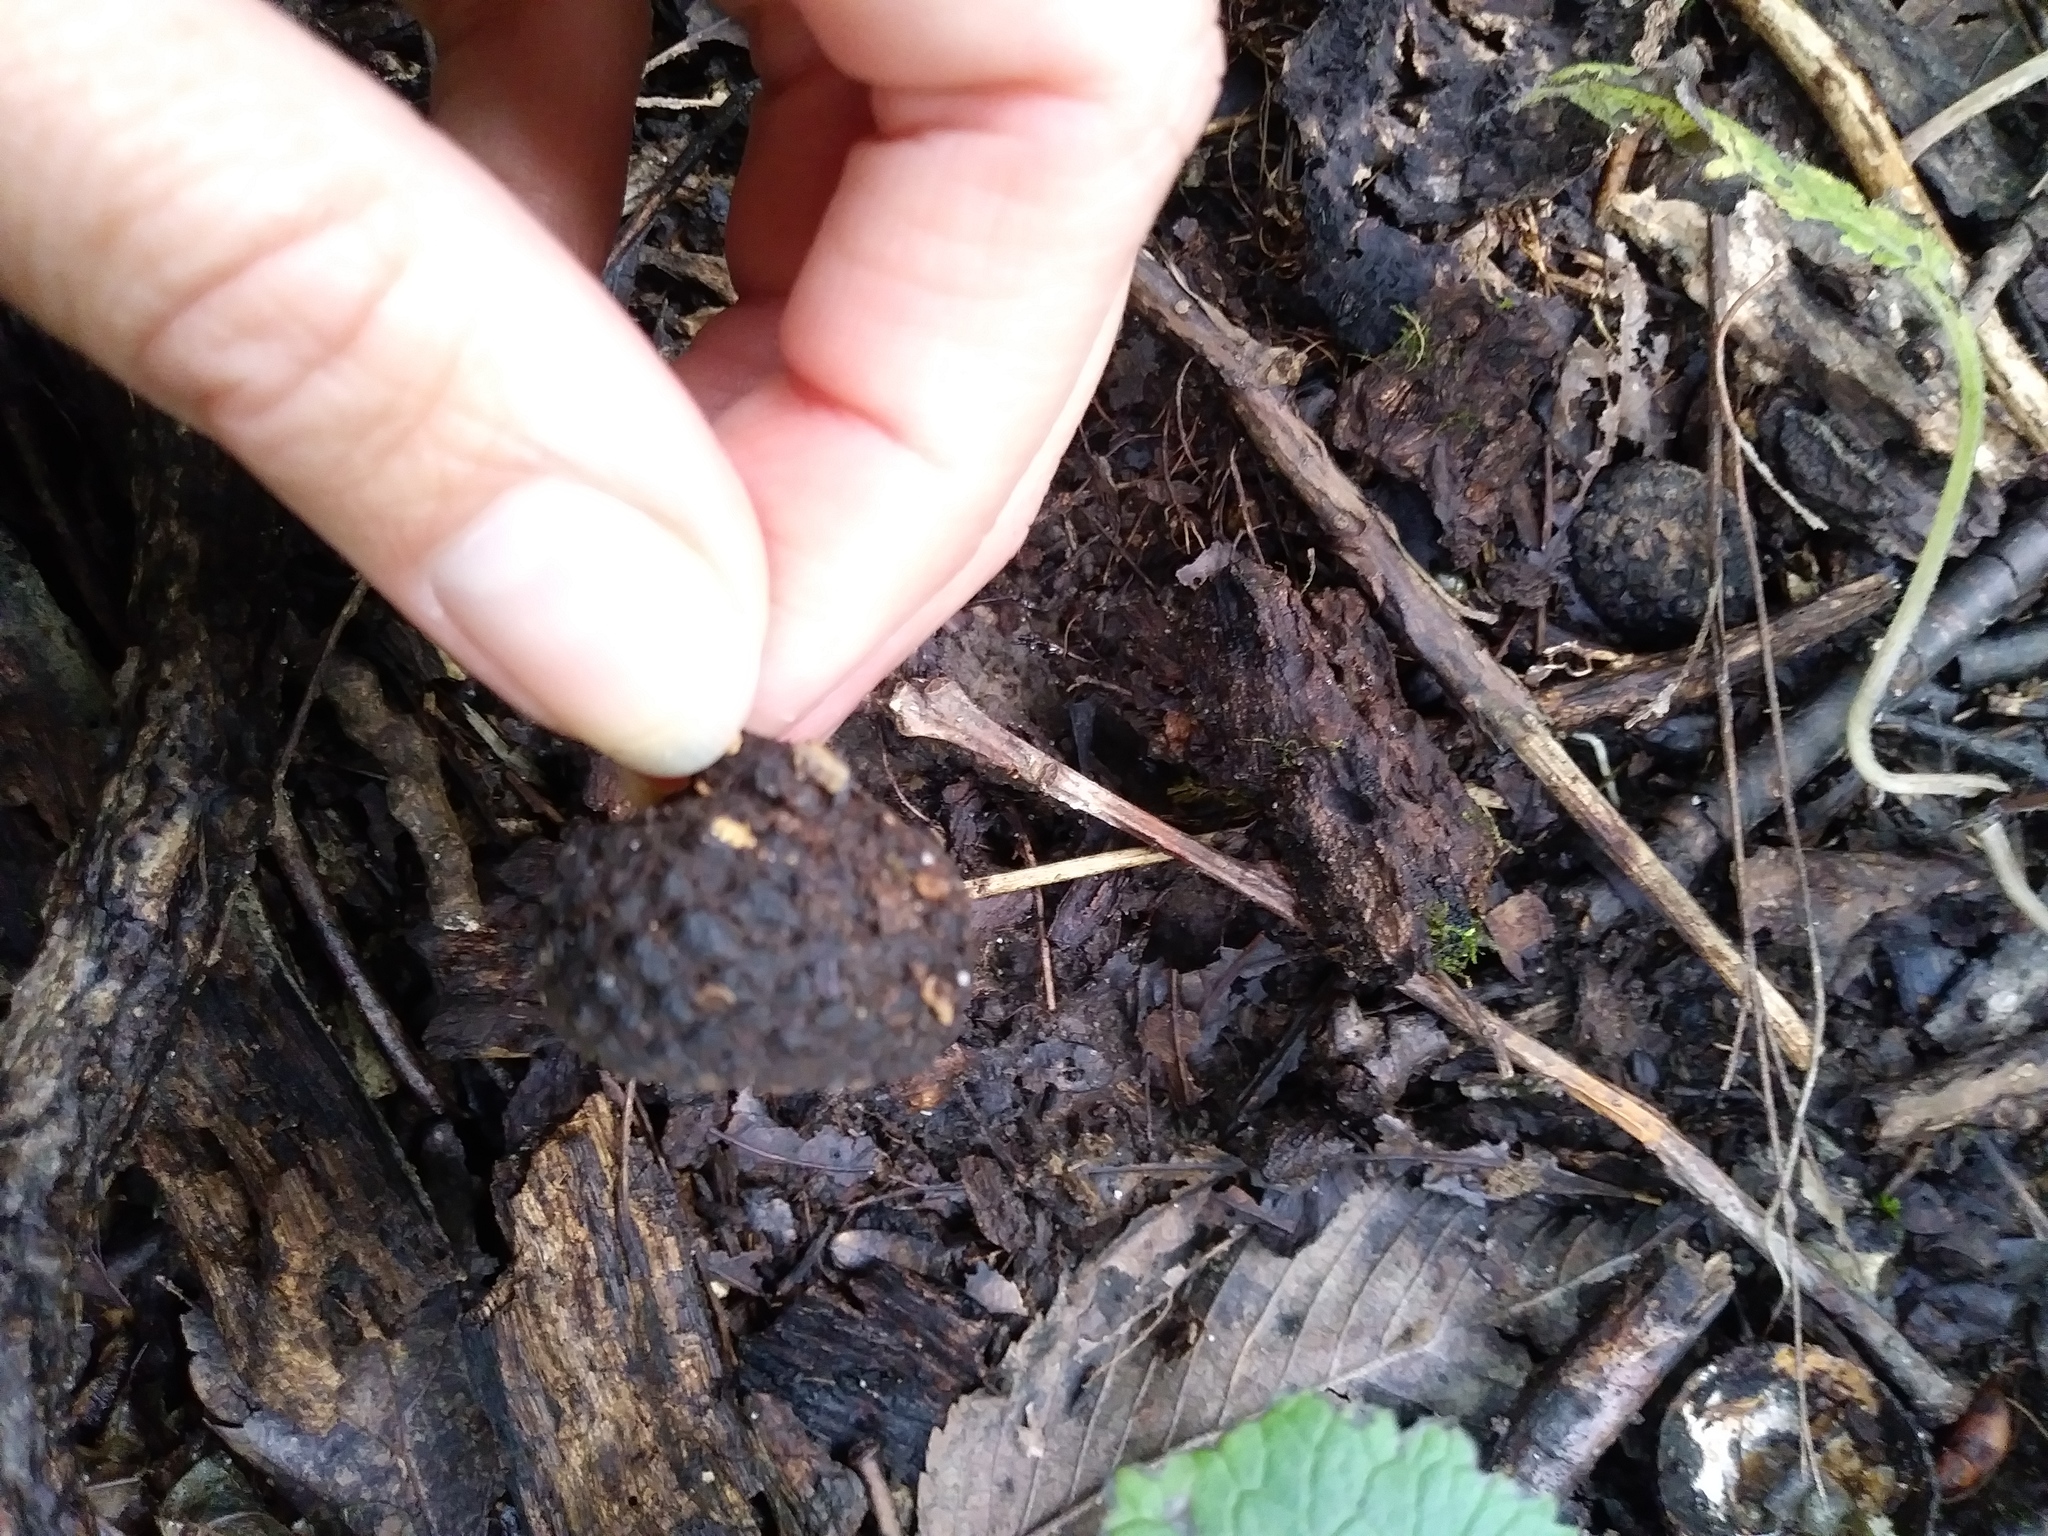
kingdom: Plantae
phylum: Tracheophyta
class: Magnoliopsida
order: Fagales
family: Fagaceae
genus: Quercus
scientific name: Quercus alba
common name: White oak
